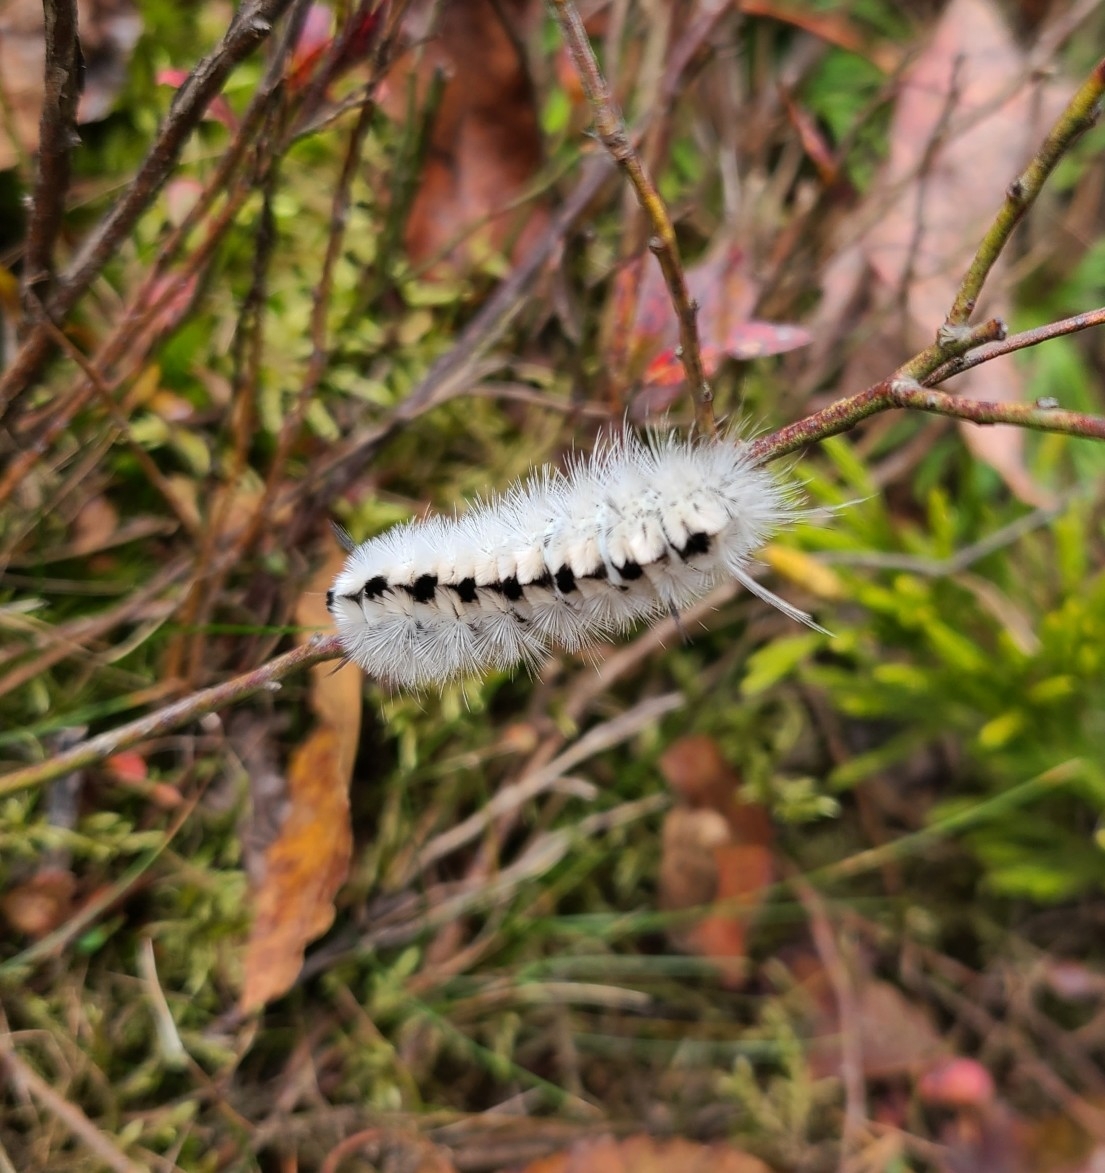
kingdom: Animalia
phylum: Arthropoda
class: Insecta
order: Lepidoptera
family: Erebidae
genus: Lophocampa
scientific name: Lophocampa caryae
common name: Hickory tussock moth
